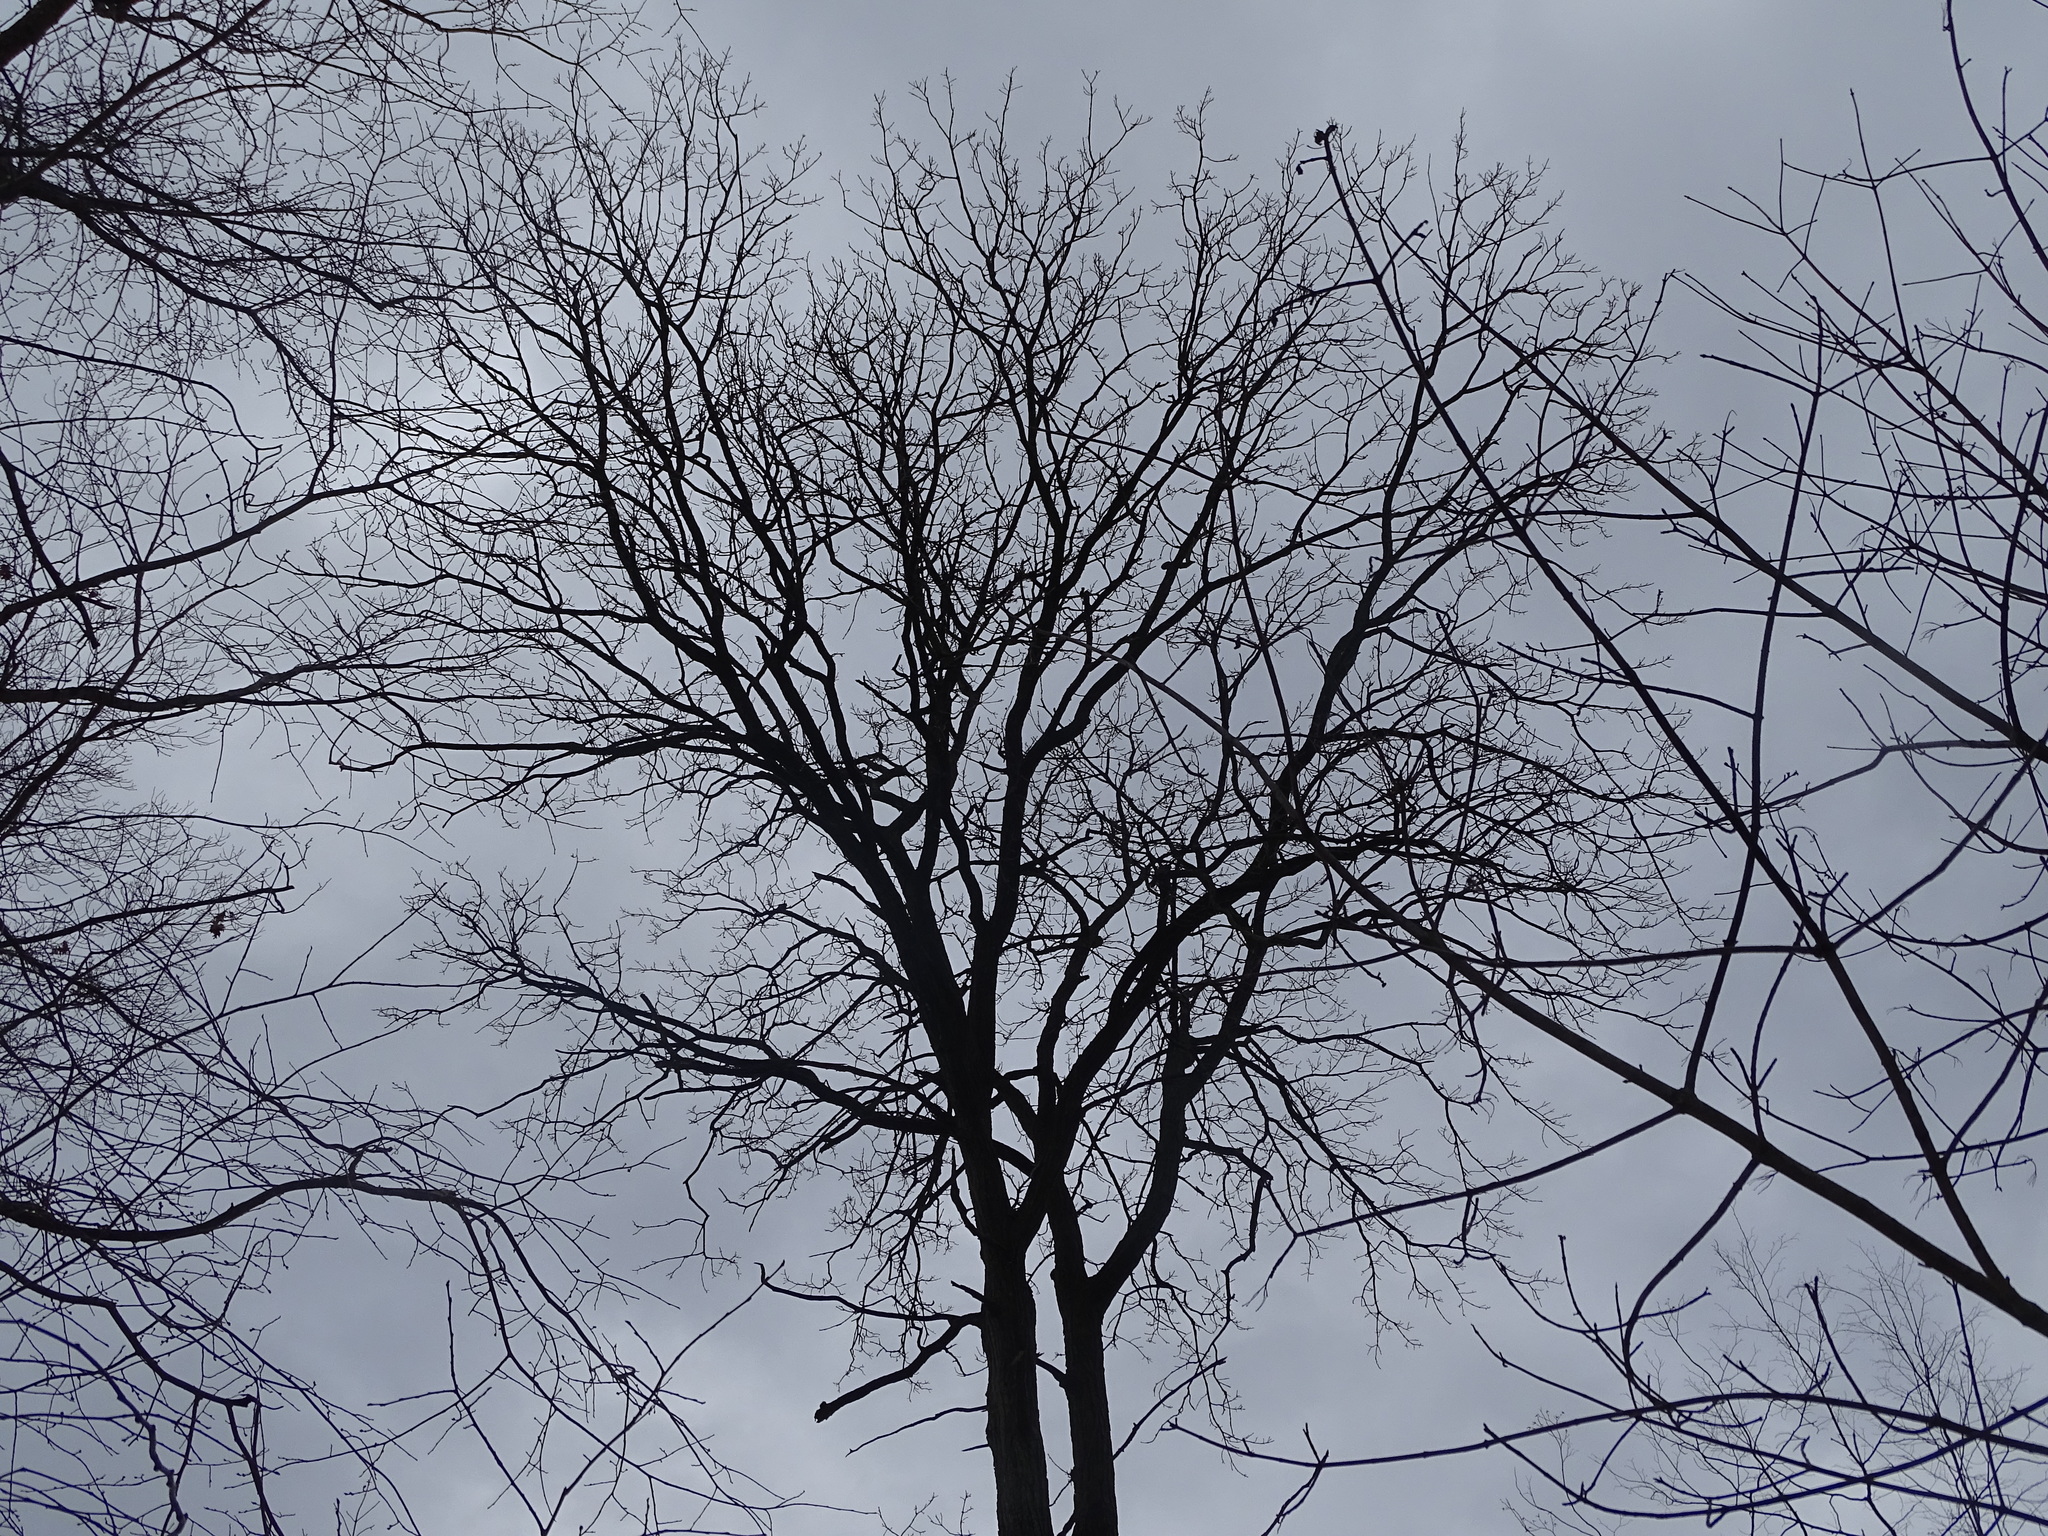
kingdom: Plantae
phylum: Tracheophyta
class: Magnoliopsida
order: Fagales
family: Fagaceae
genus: Quercus
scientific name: Quercus macrocarpa
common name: Bur oak
